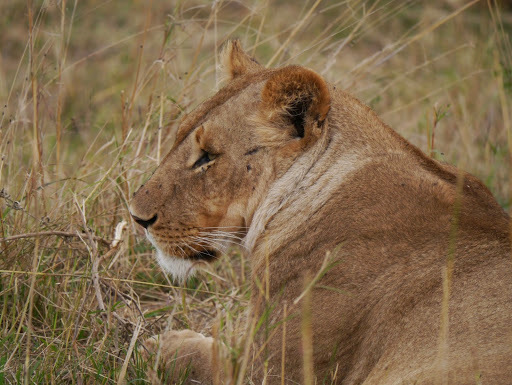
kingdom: Animalia
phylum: Chordata
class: Mammalia
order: Carnivora
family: Felidae
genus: Panthera
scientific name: Panthera leo
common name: Lion
